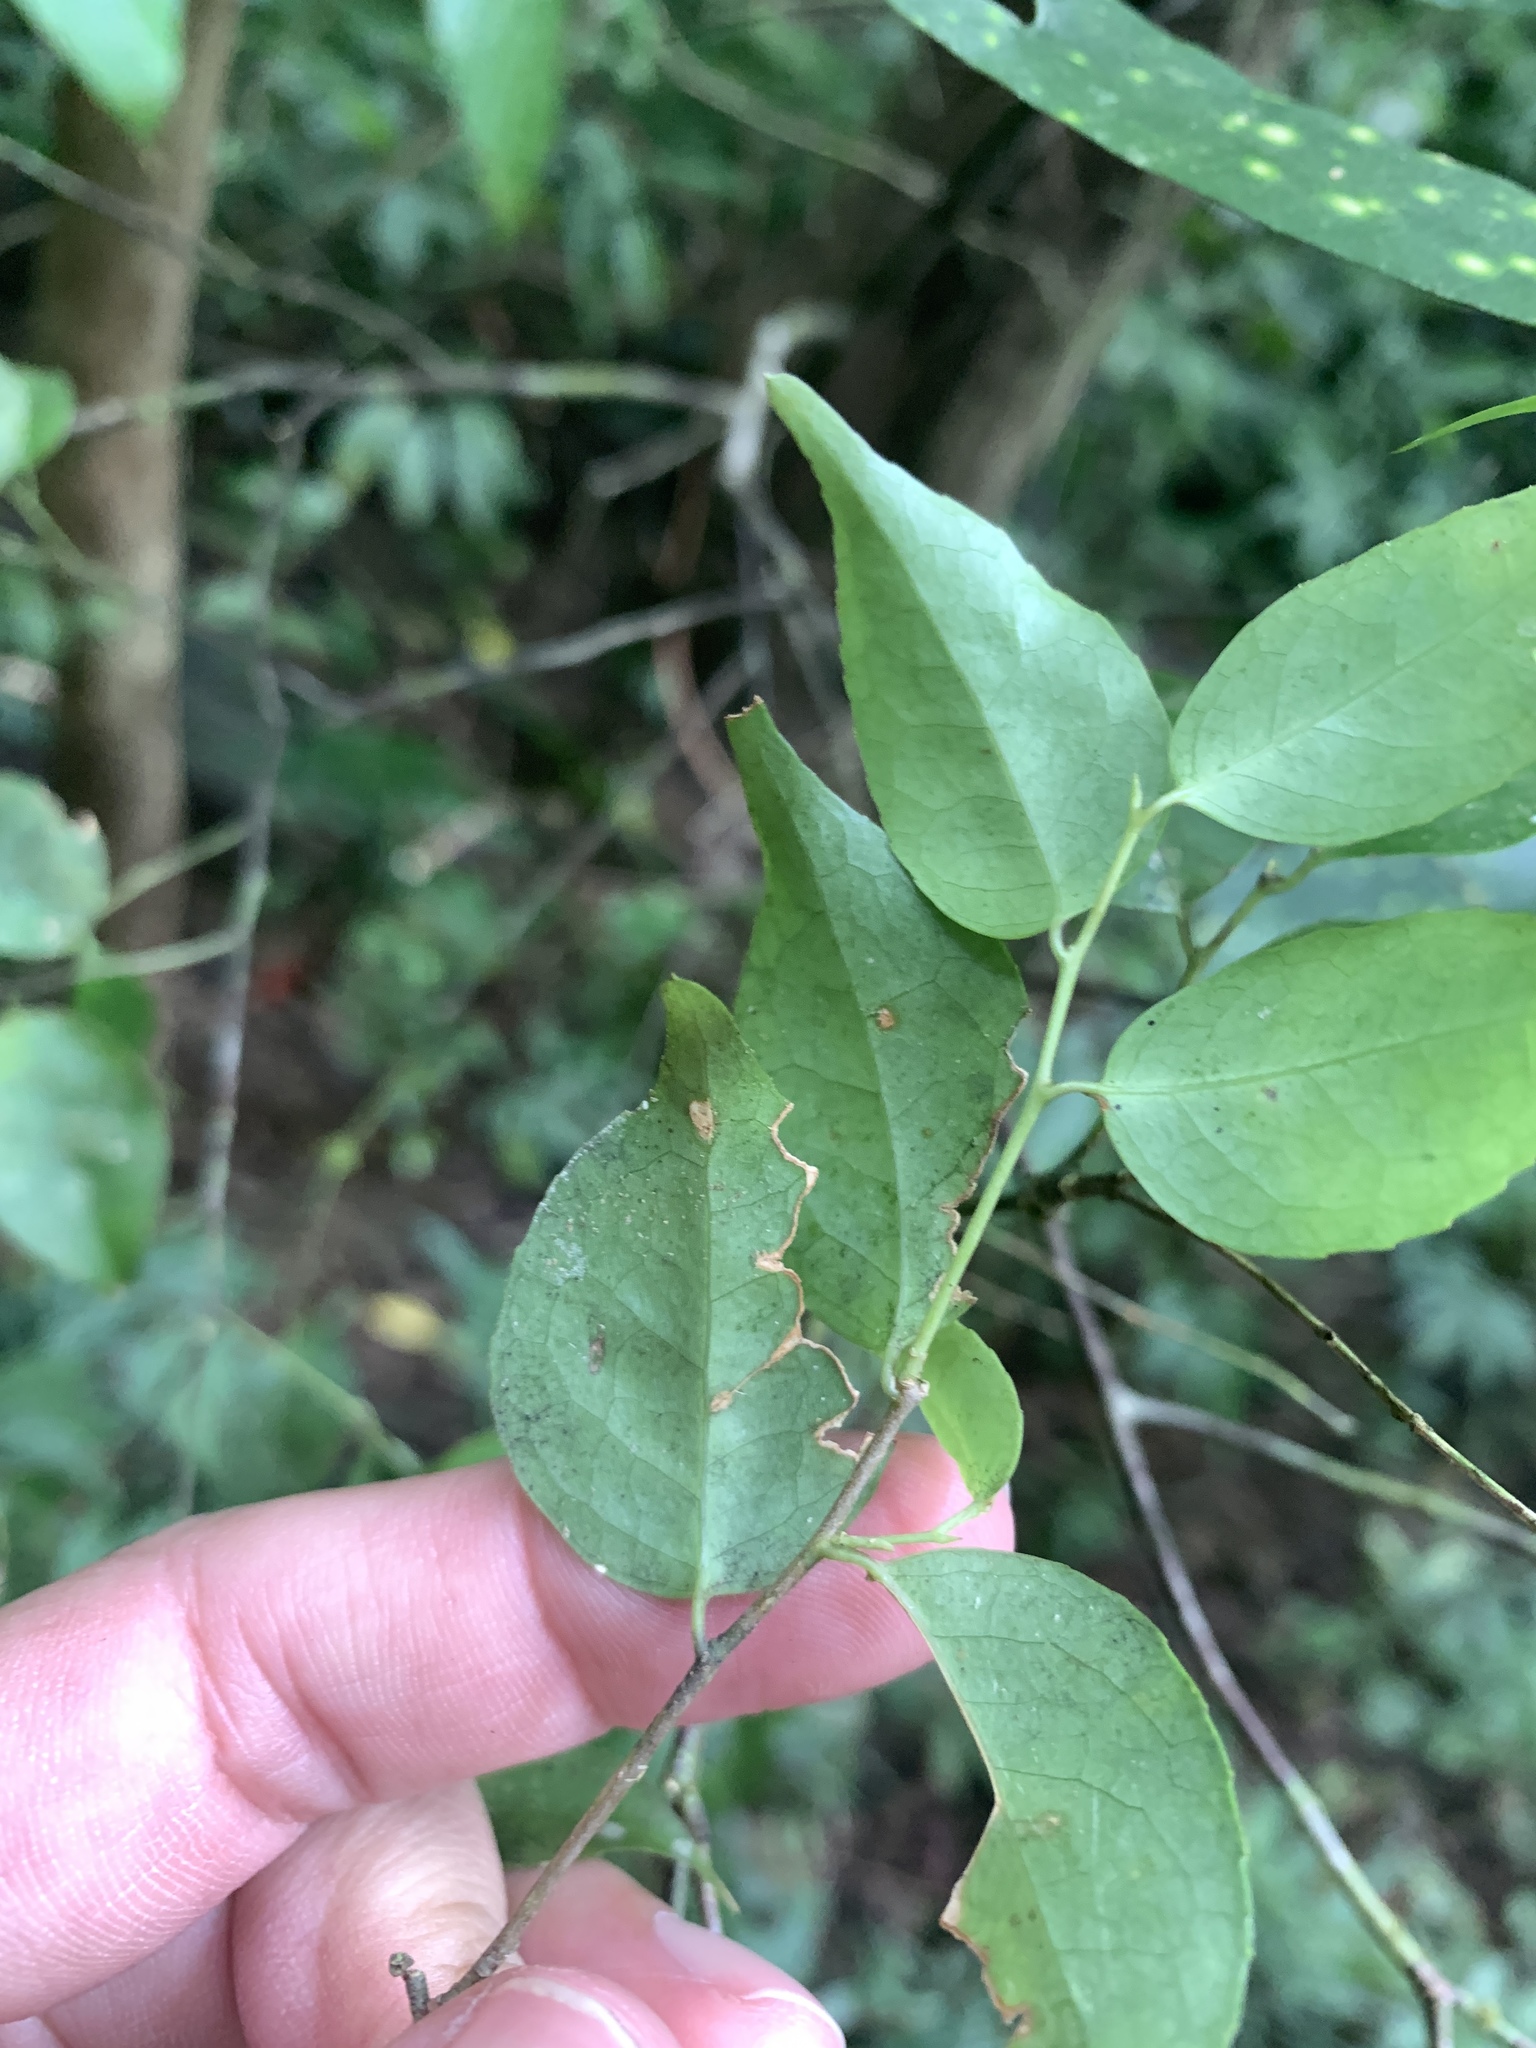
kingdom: Plantae
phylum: Tracheophyta
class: Magnoliopsida
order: Ericales
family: Symplocaceae
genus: Symplocos
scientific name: Symplocos sumuntia
